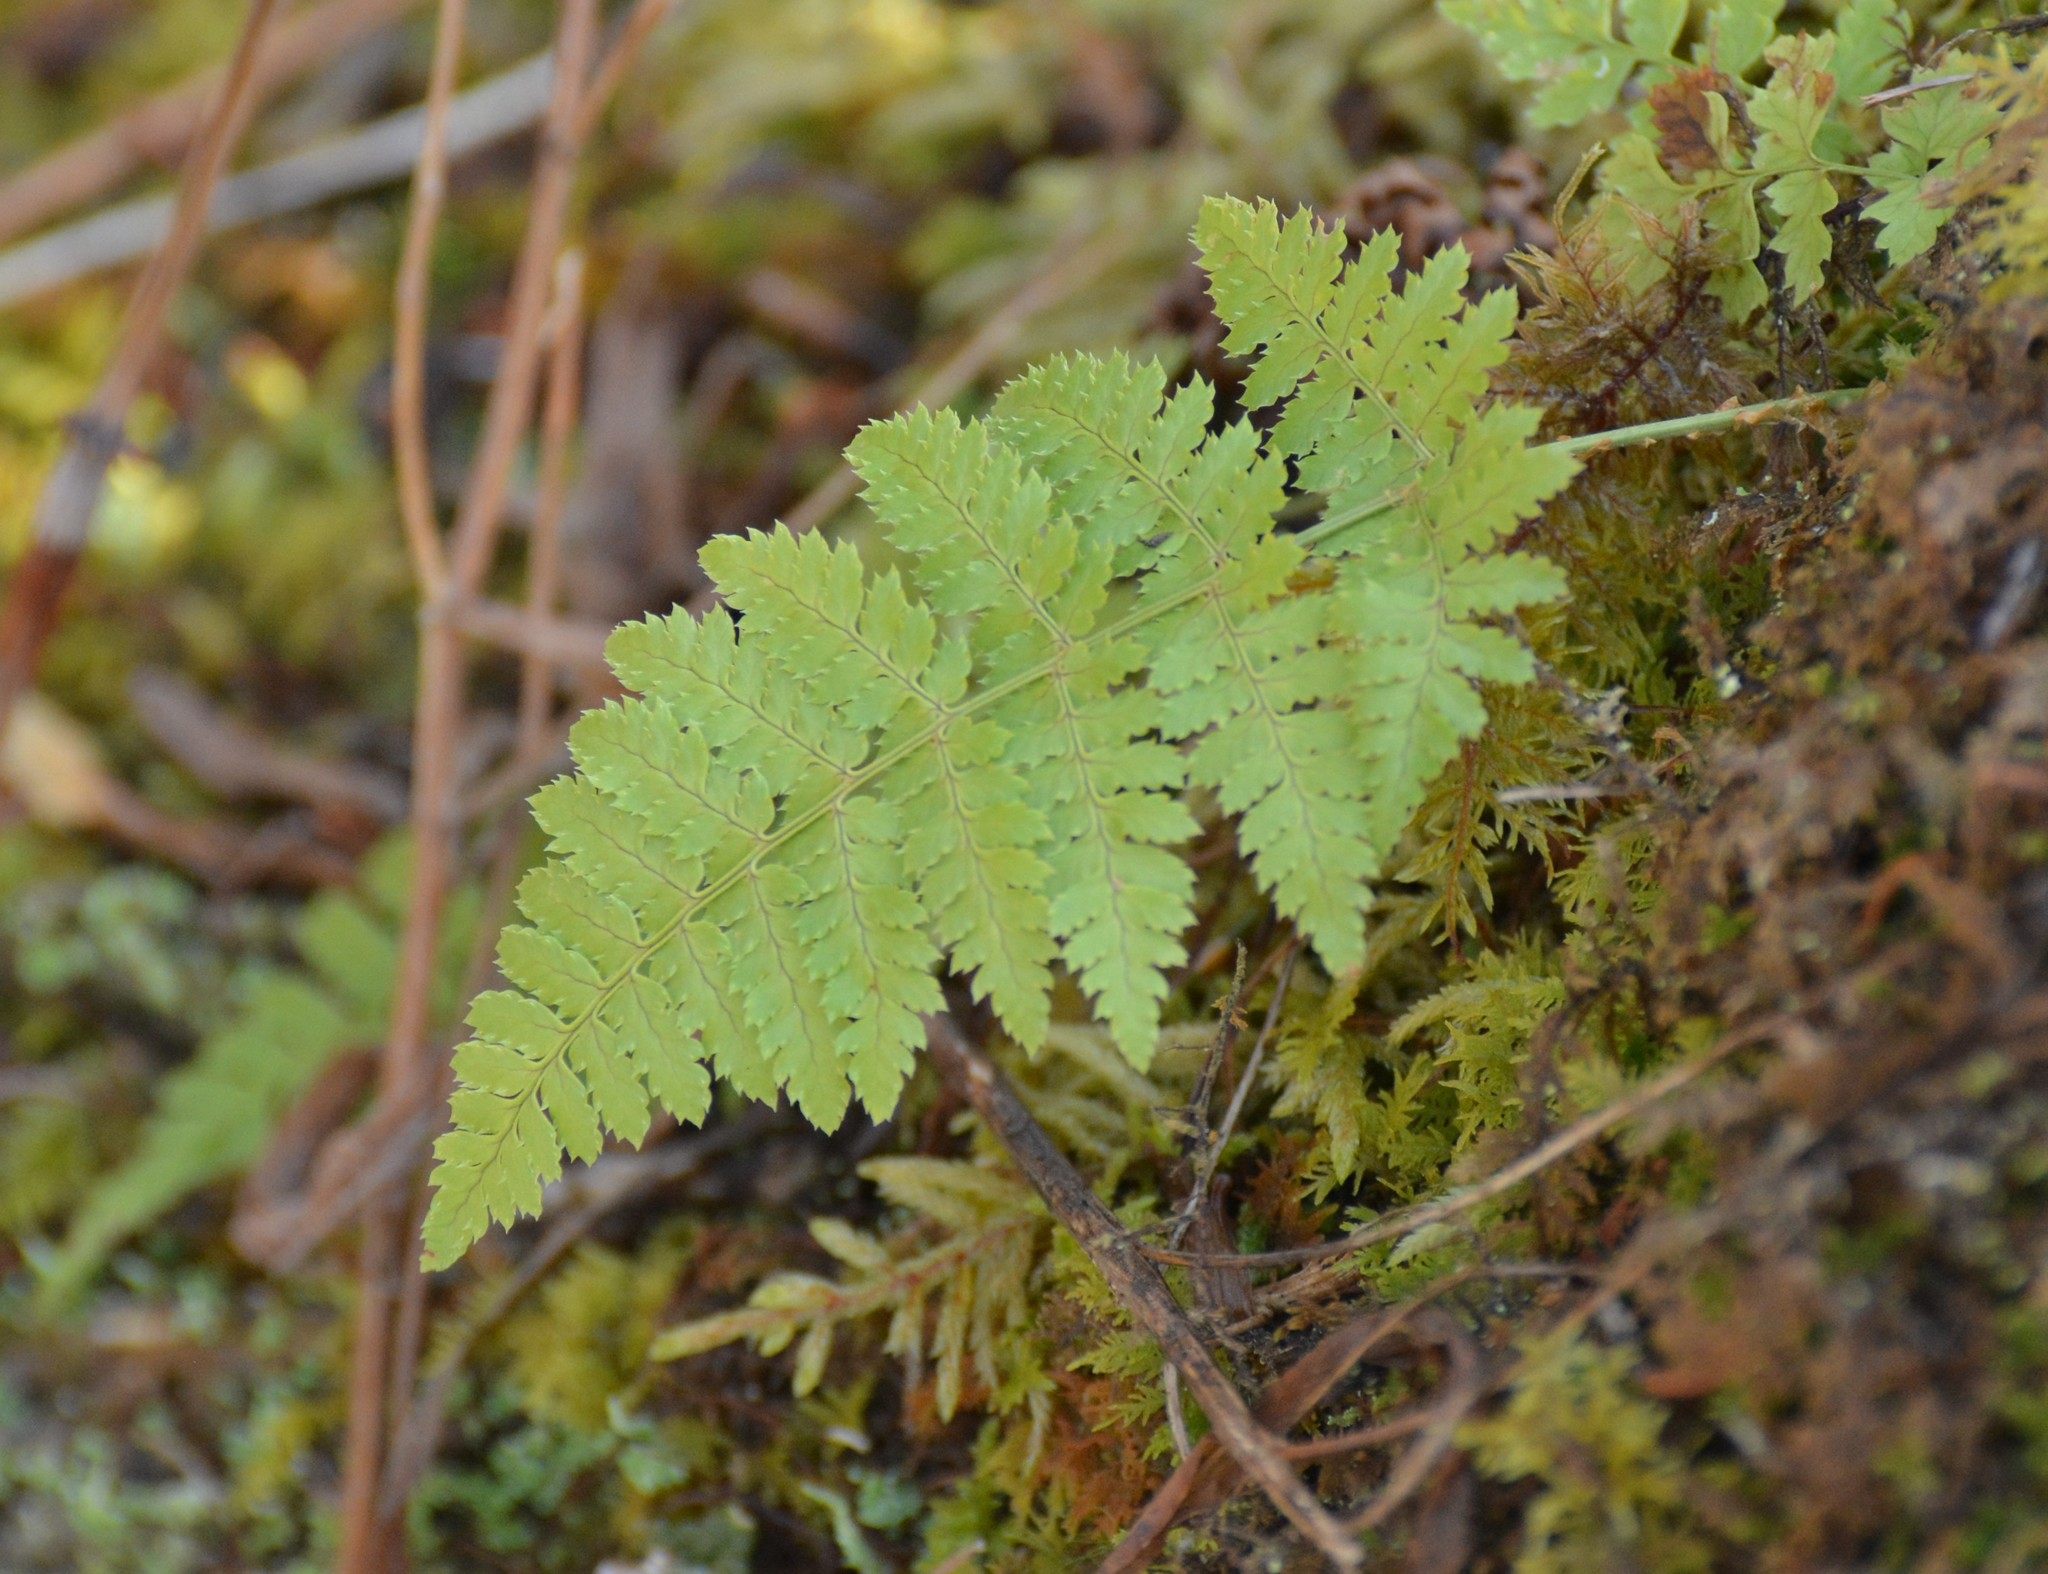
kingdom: Plantae
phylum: Tracheophyta
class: Polypodiopsida
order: Polypodiales
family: Dryopteridaceae
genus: Dryopteris
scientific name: Dryopteris intermedia
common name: Evergreen wood fern
